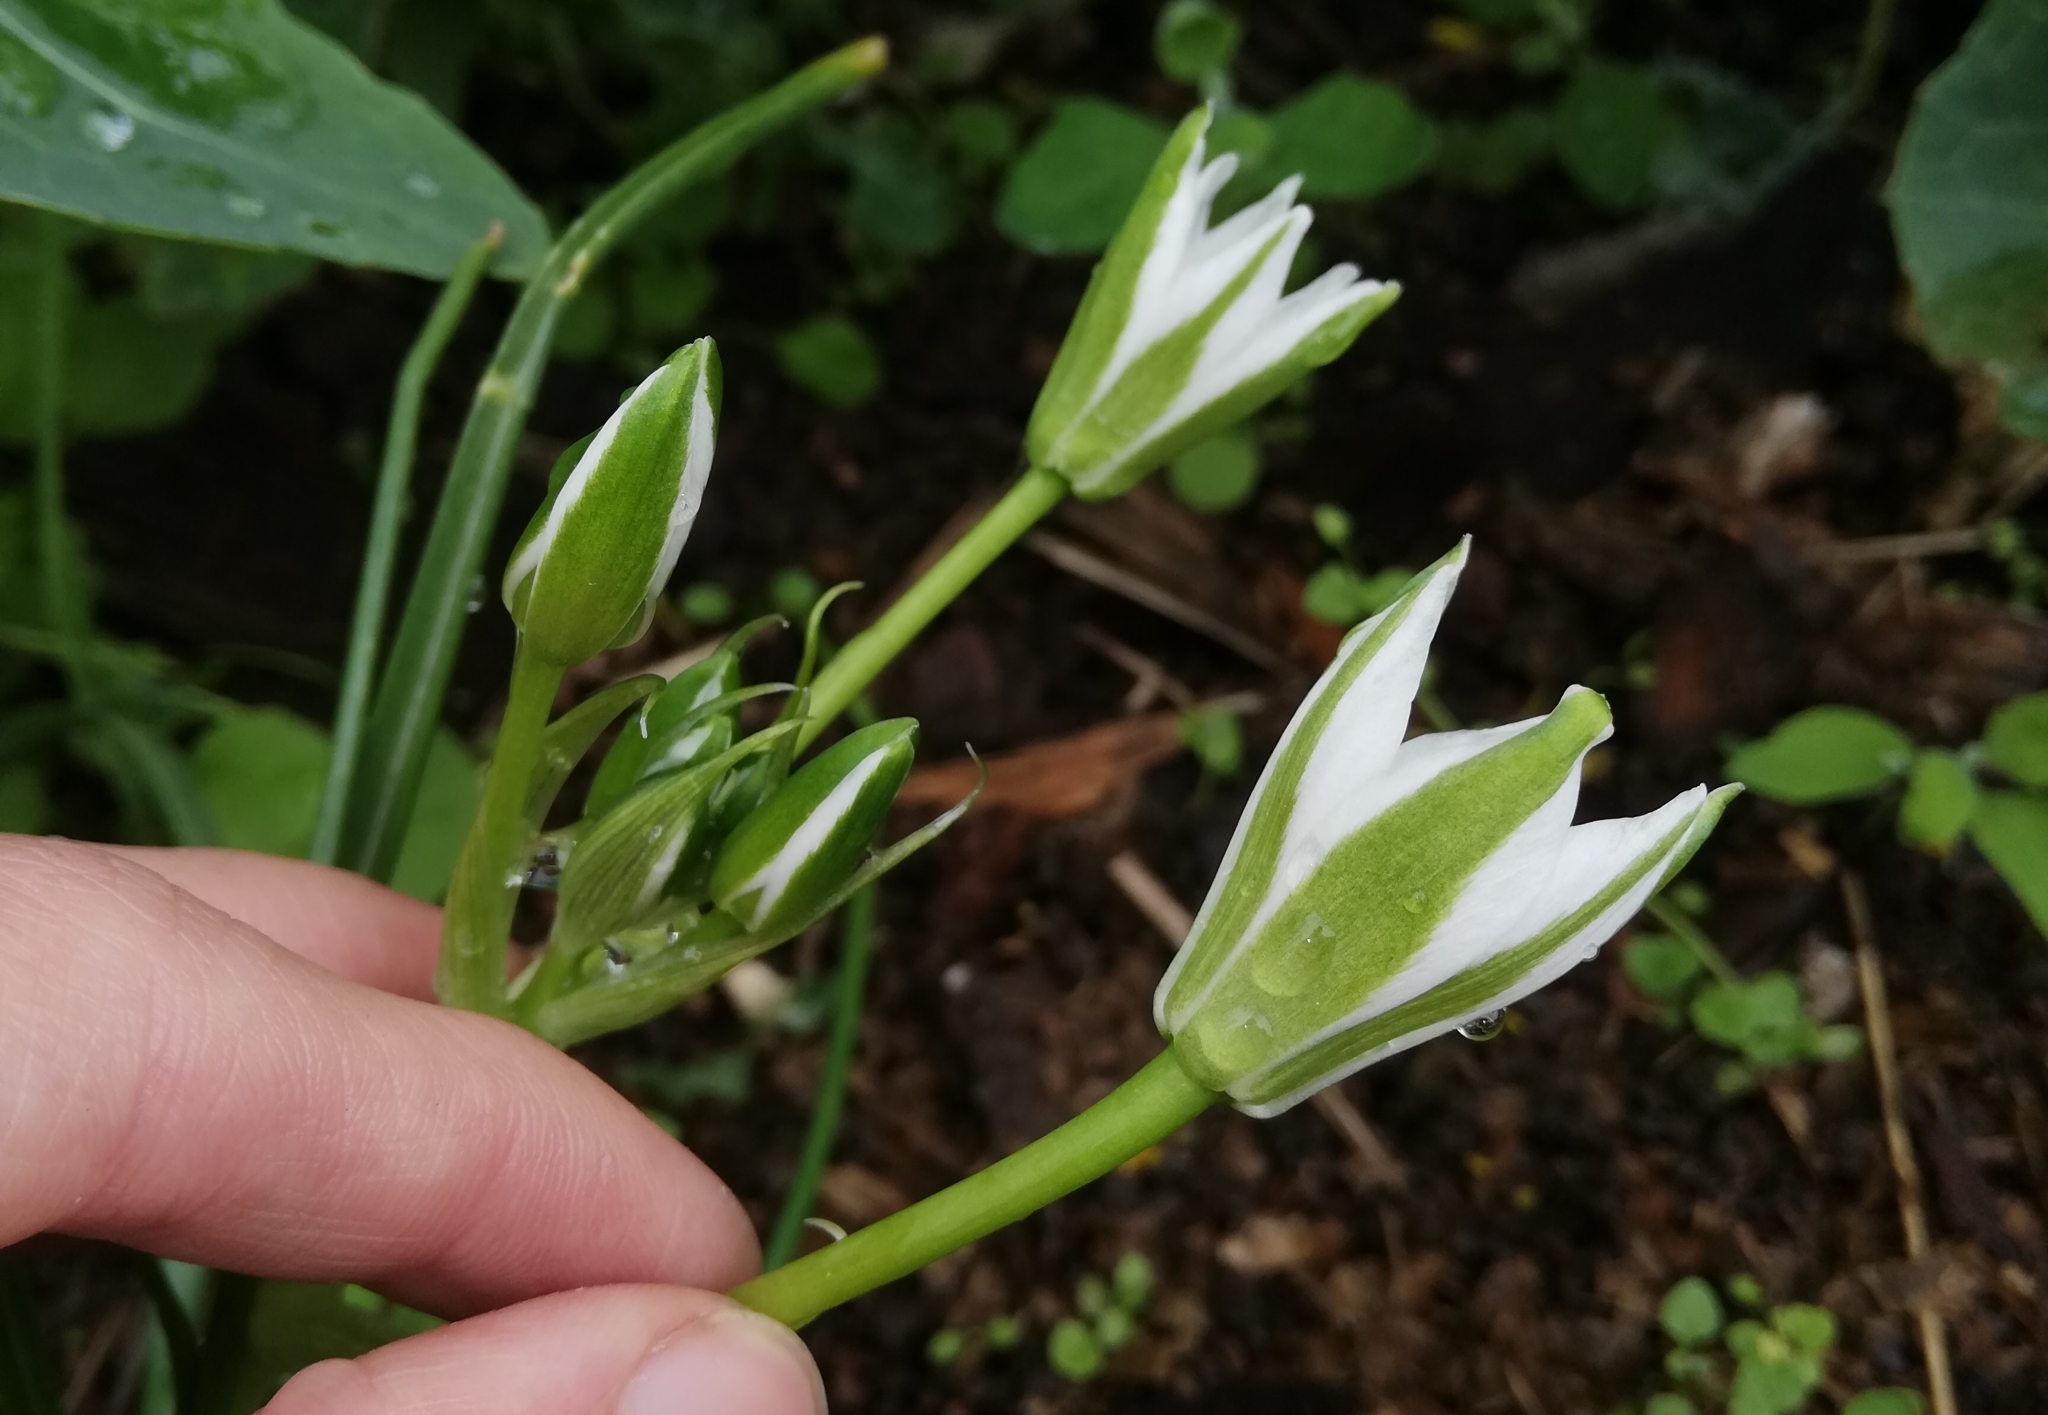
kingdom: Plantae
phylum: Tracheophyta
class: Liliopsida
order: Asparagales
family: Asparagaceae
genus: Ornithogalum
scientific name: Ornithogalum umbellatum
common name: Garden star-of-bethlehem
